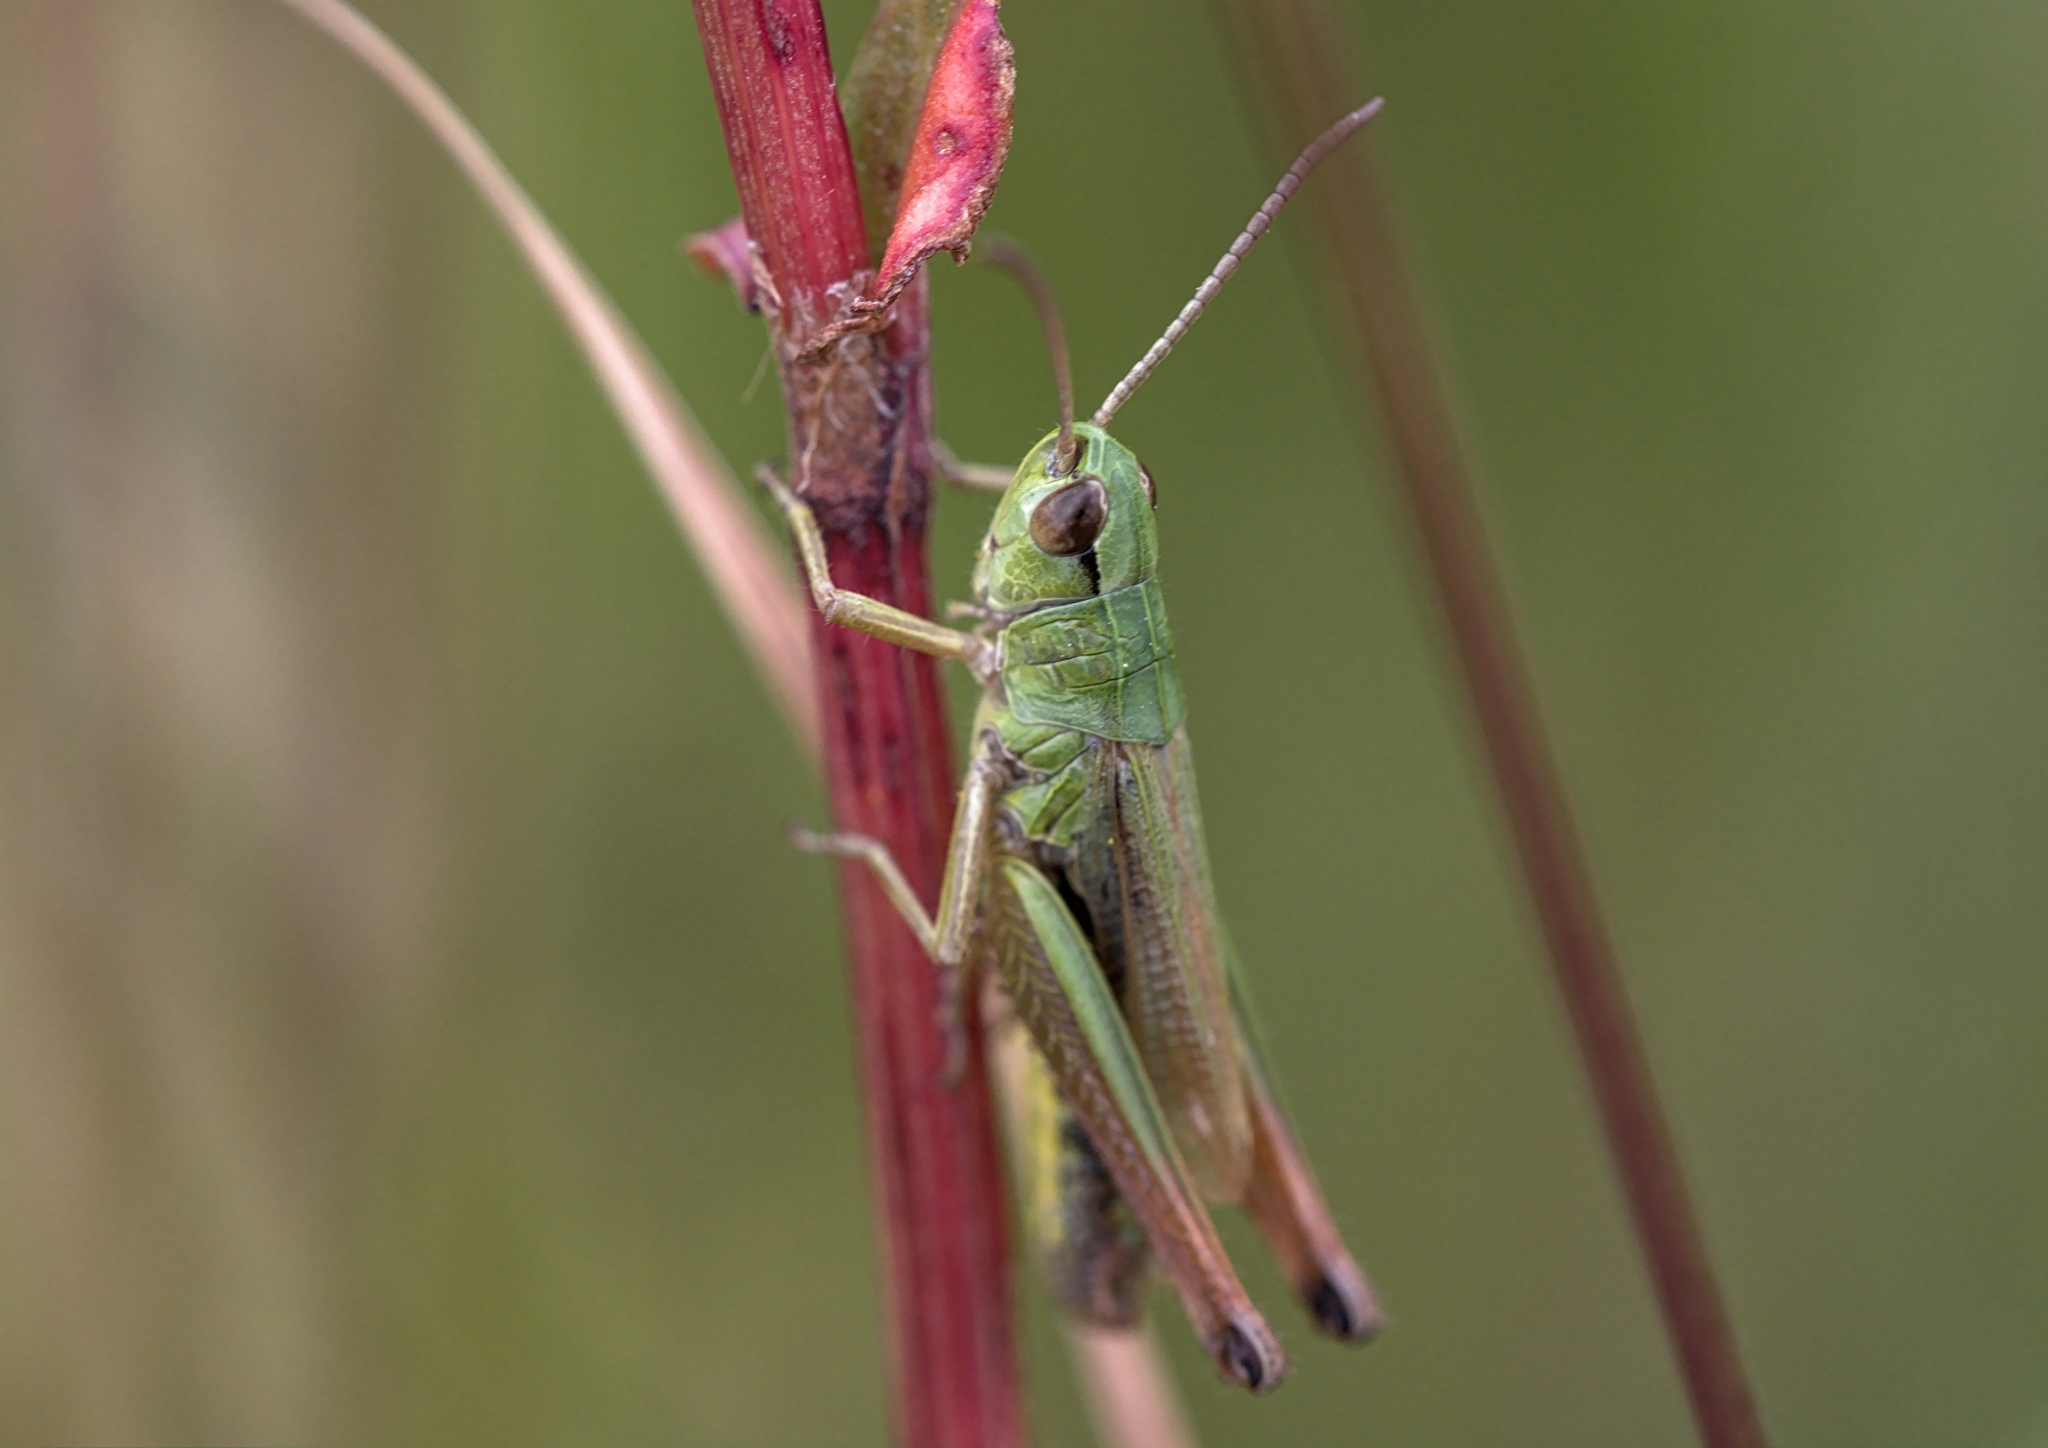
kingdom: Animalia
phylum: Arthropoda
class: Insecta
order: Orthoptera
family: Acrididae
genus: Pseudochorthippus
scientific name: Pseudochorthippus parallelus
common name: Meadow grasshopper
